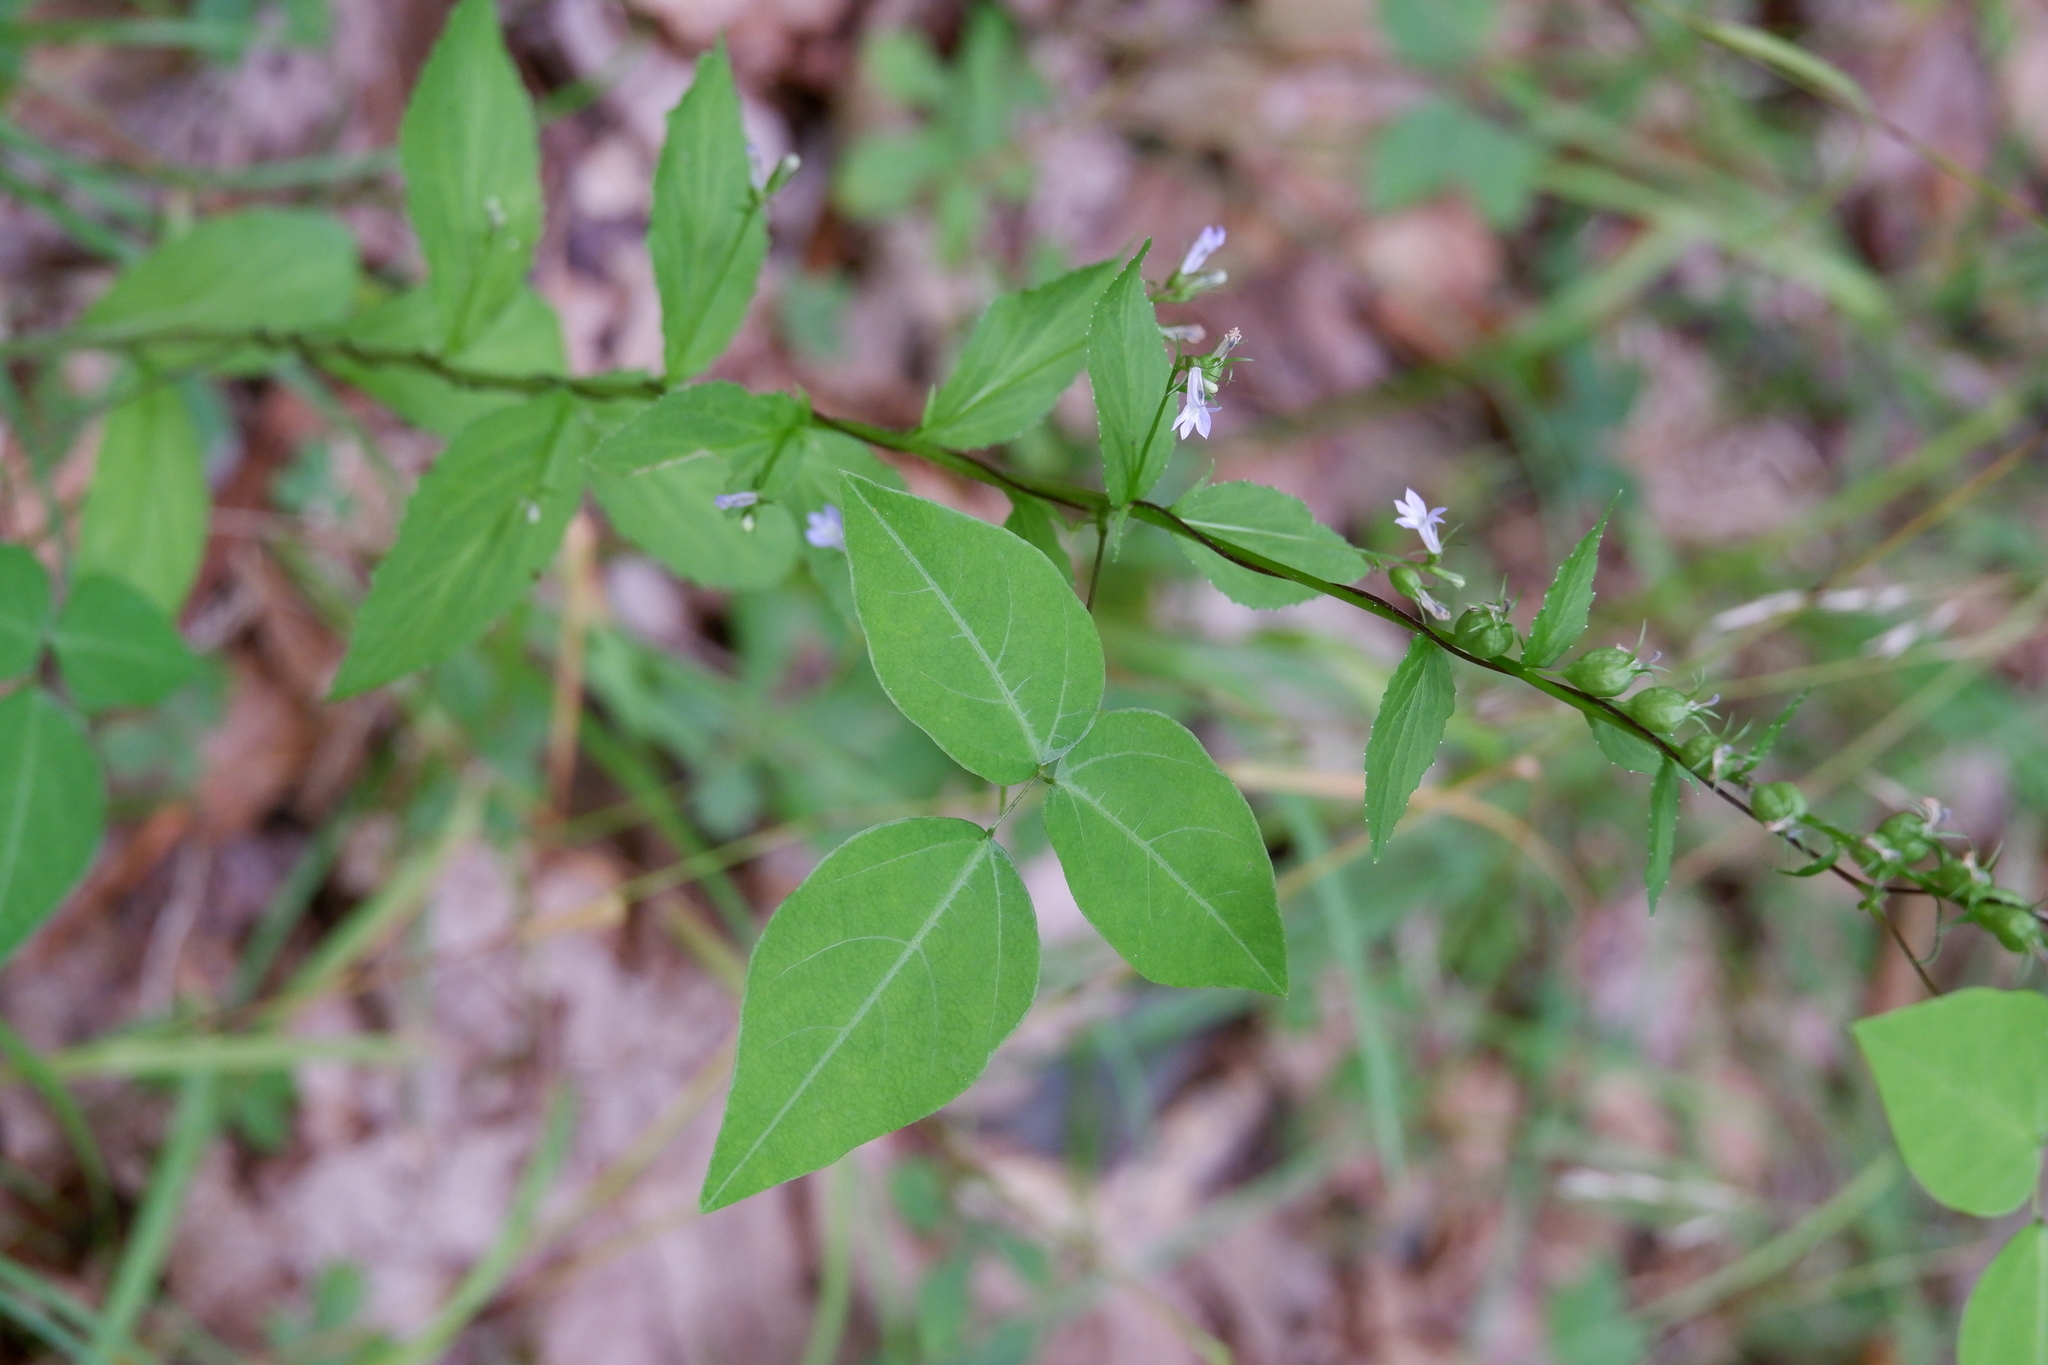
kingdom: Plantae
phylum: Tracheophyta
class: Magnoliopsida
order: Fabales
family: Fabaceae
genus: Amphicarpaea
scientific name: Amphicarpaea bracteata
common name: American hog peanut
